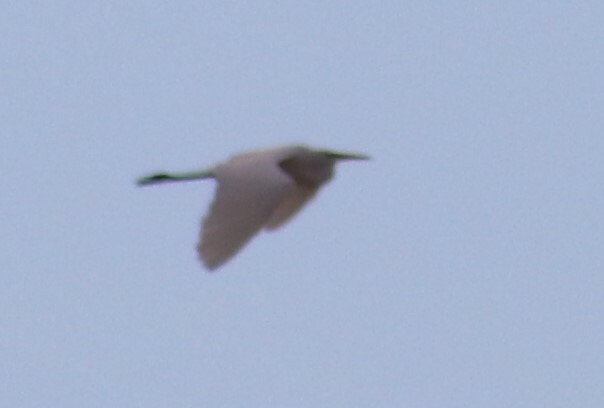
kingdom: Animalia
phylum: Chordata
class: Aves
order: Pelecaniformes
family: Ardeidae
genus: Ardea
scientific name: Ardea alba
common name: Great egret
